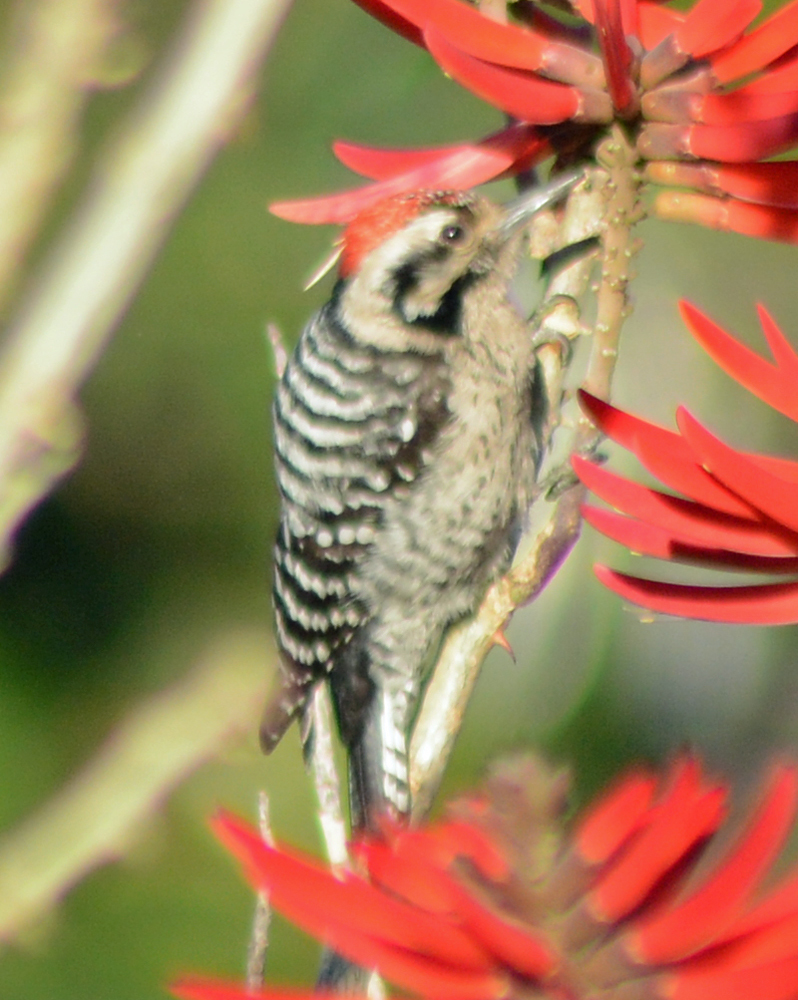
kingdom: Animalia
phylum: Chordata
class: Aves
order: Piciformes
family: Picidae
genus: Dryobates
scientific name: Dryobates scalaris
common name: Ladder-backed woodpecker
